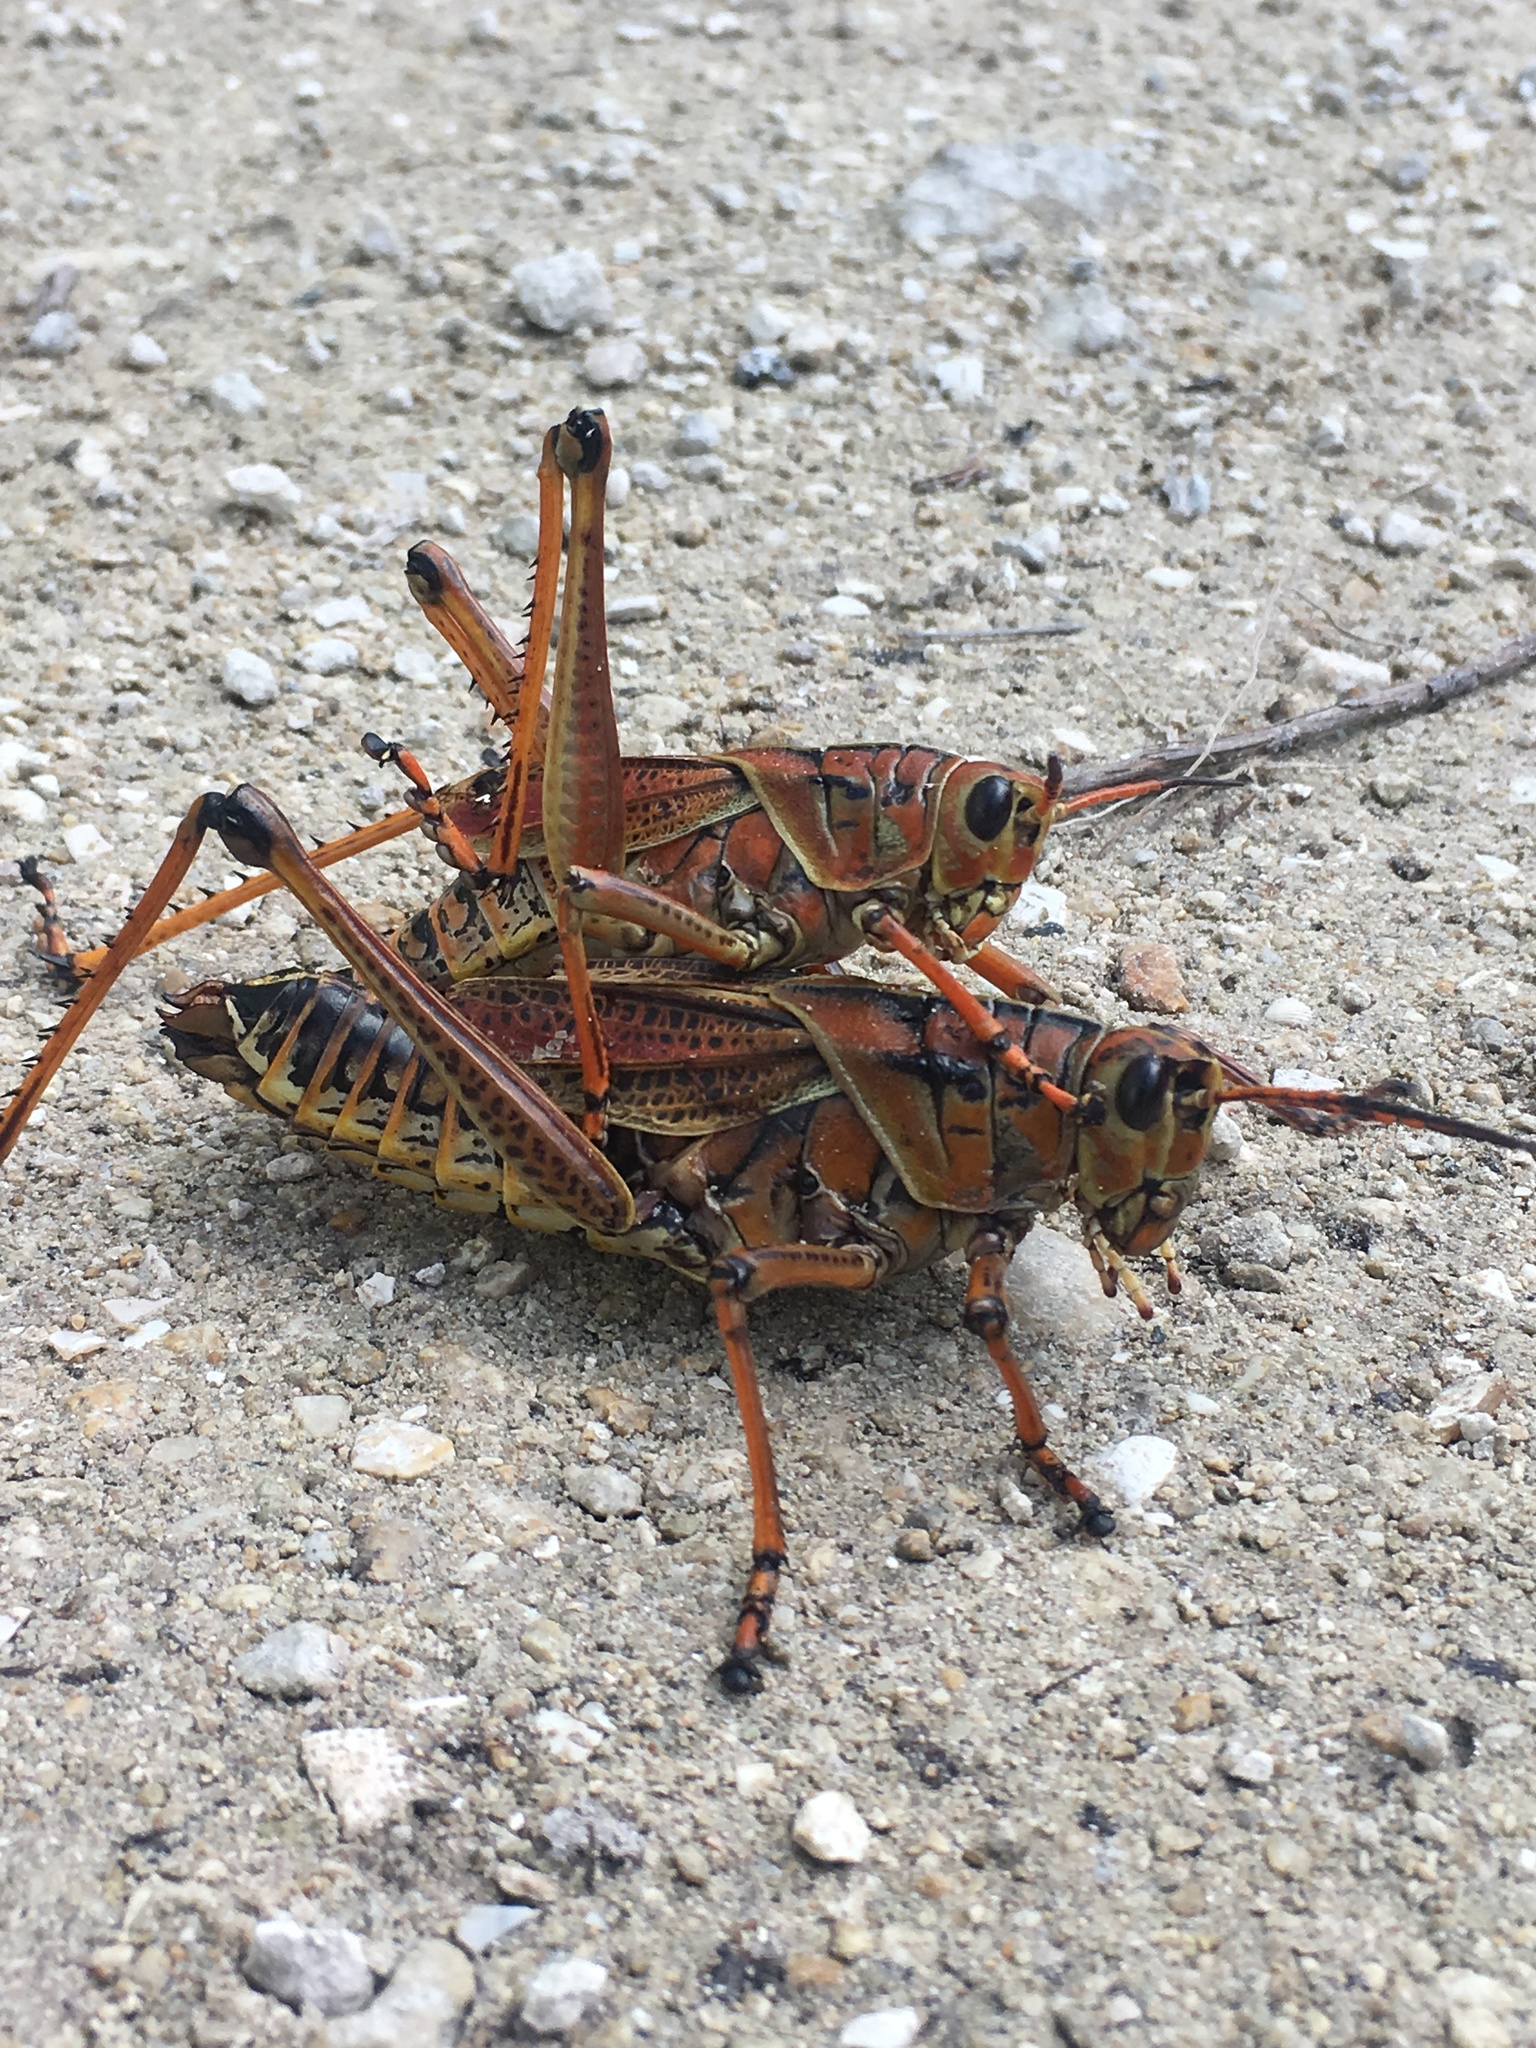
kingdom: Animalia
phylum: Arthropoda
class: Insecta
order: Orthoptera
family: Romaleidae
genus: Romalea
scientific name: Romalea microptera
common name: Eastern lubber grasshopper
